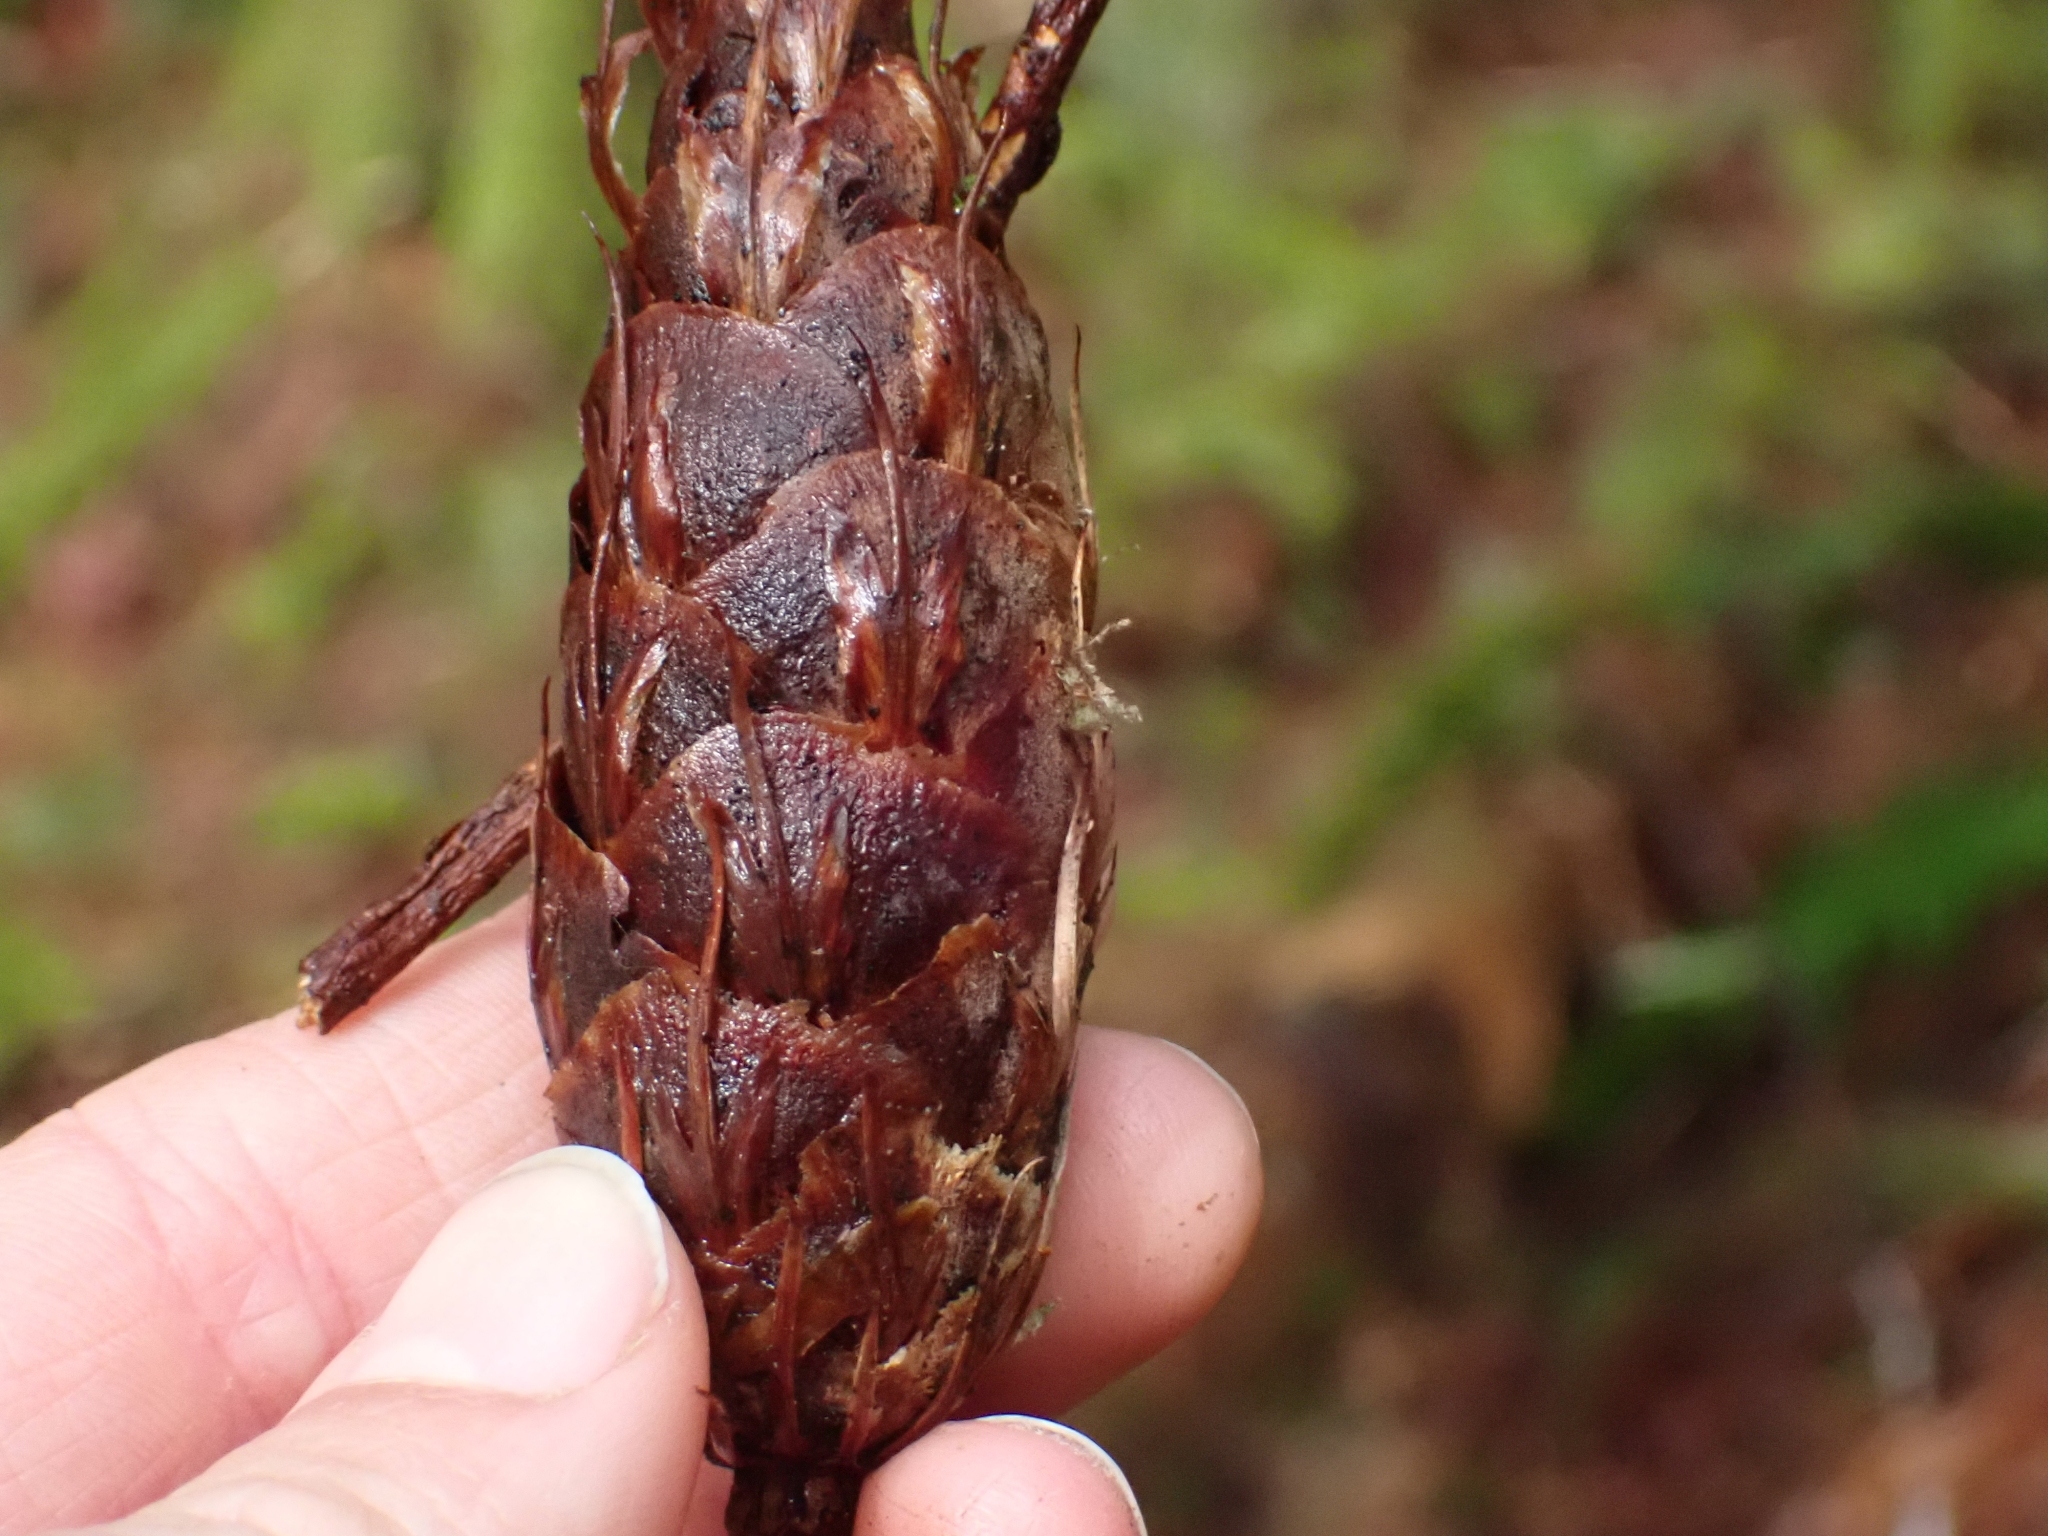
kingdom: Plantae
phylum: Tracheophyta
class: Pinopsida
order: Pinales
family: Pinaceae
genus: Pseudotsuga
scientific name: Pseudotsuga menziesii
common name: Douglas fir
